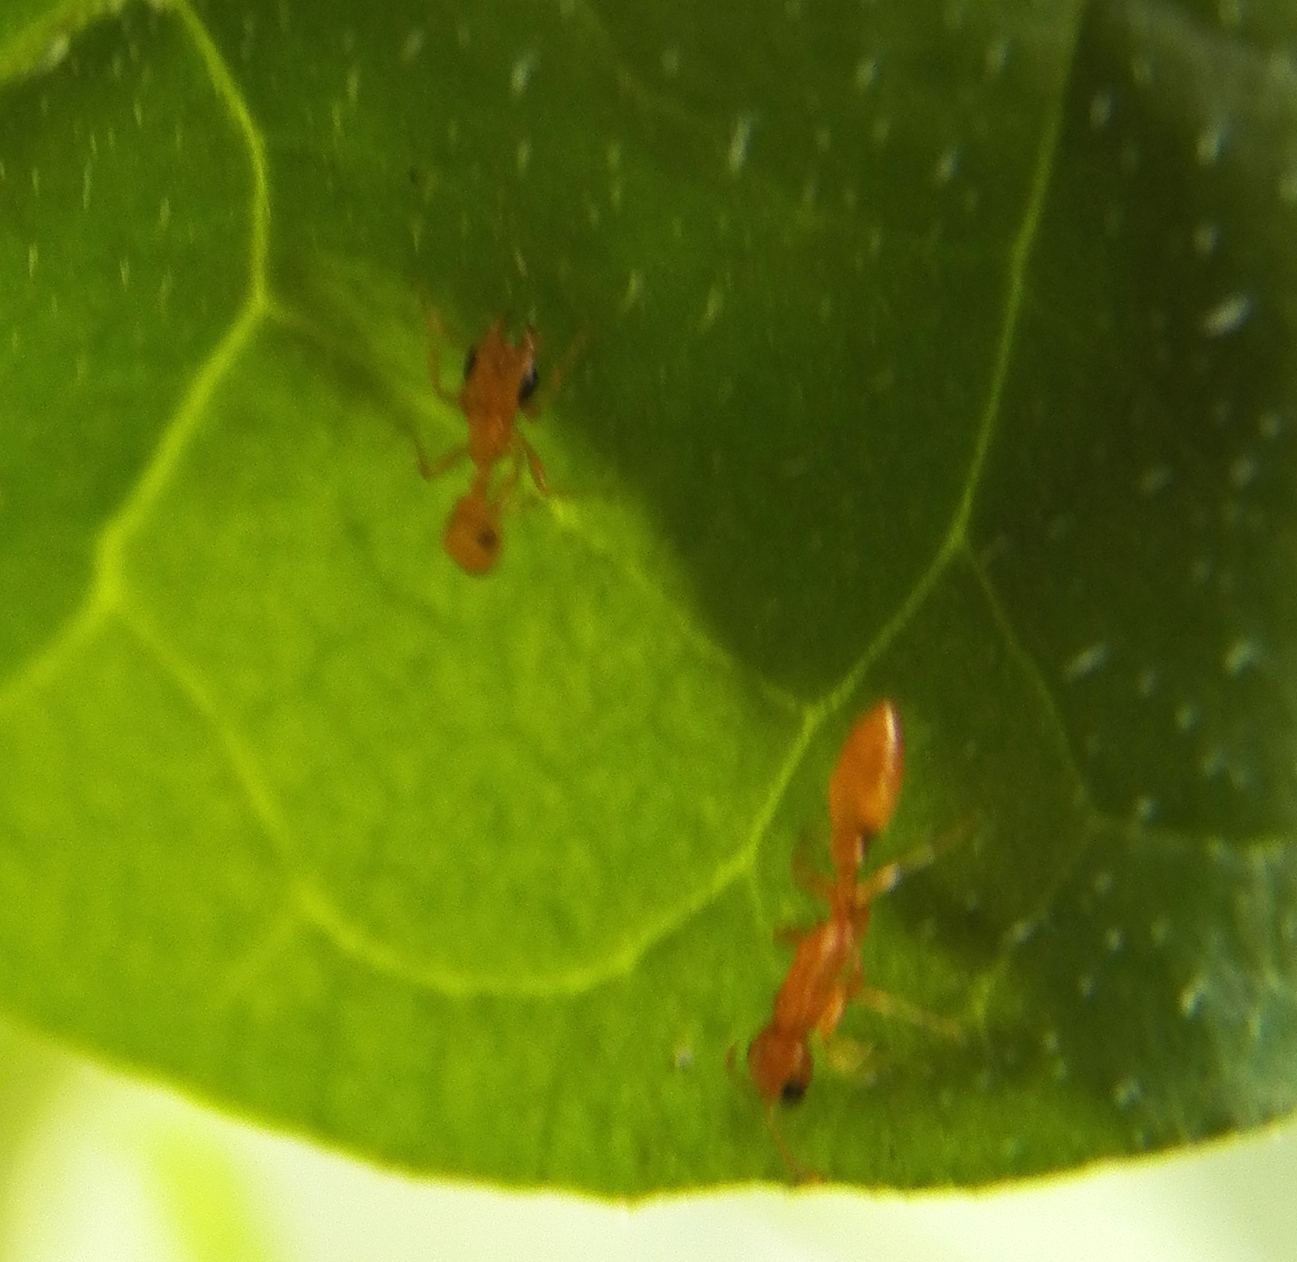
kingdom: Animalia
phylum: Arthropoda
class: Insecta
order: Hymenoptera
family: Formicidae
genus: Pseudomyrmex
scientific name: Pseudomyrmex pallidus
